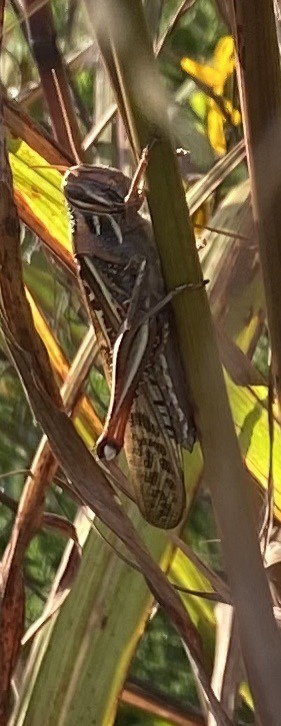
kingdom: Animalia
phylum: Arthropoda
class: Insecta
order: Orthoptera
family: Acrididae
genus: Schistocerca
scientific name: Schistocerca americana
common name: American bird locust
